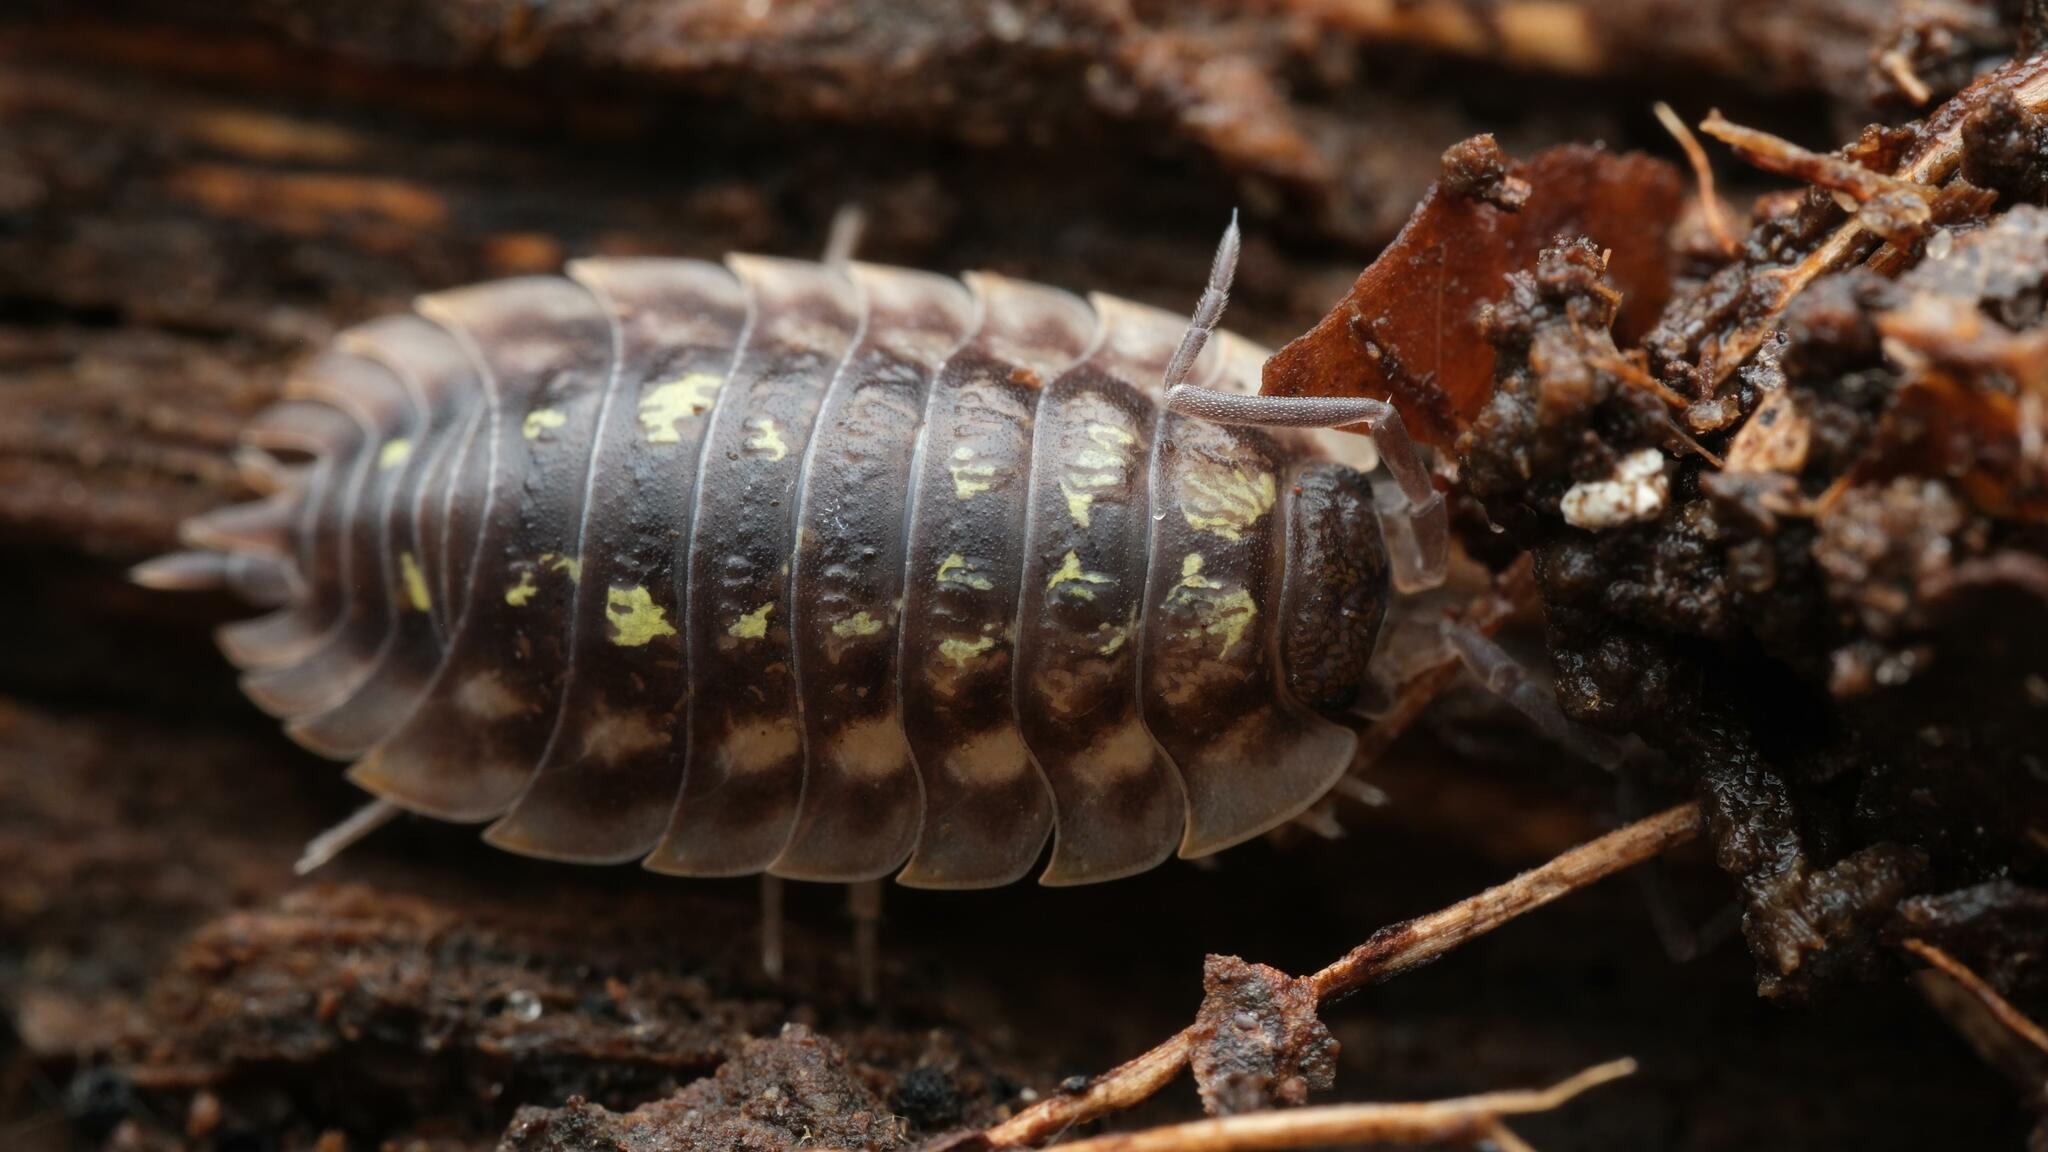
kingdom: Animalia
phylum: Arthropoda
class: Malacostraca
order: Isopoda
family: Oniscidae
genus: Oniscus
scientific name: Oniscus asellus
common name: Common shiny woodlouse
